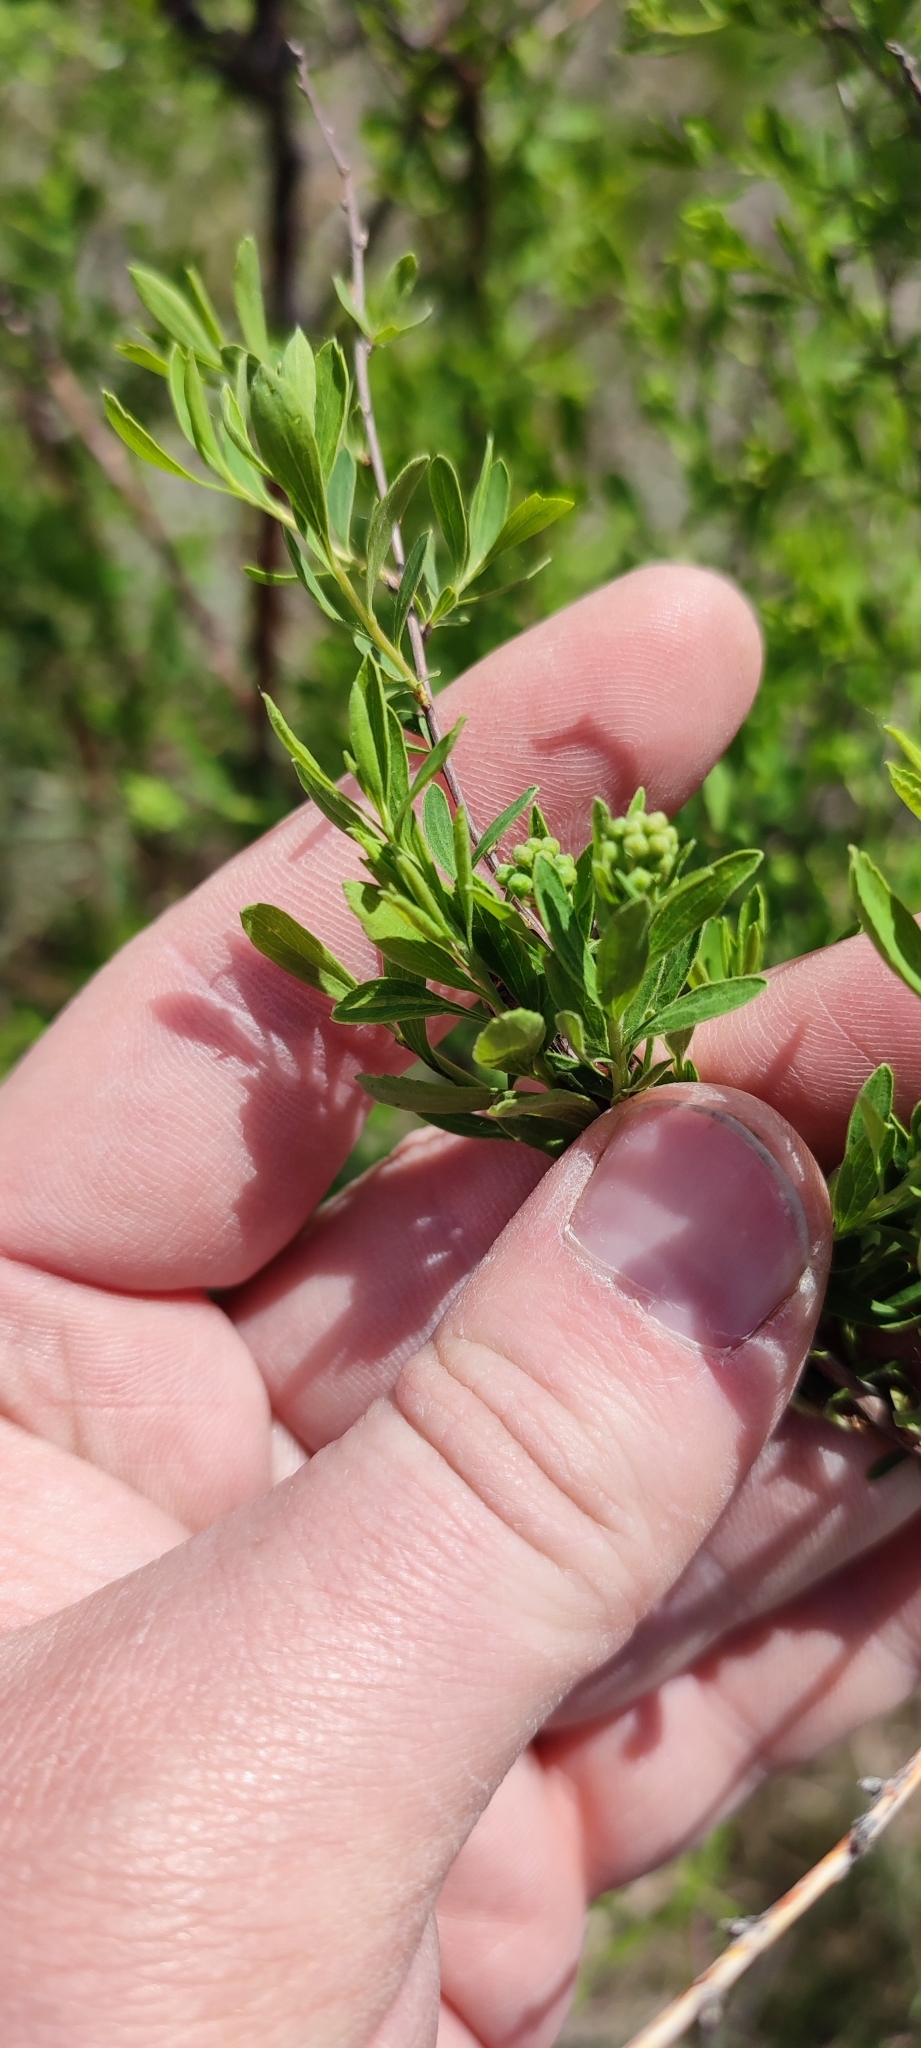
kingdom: Plantae
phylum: Tracheophyta
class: Magnoliopsida
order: Rosales
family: Rosaceae
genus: Spiraea
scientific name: Spiraea crenata
